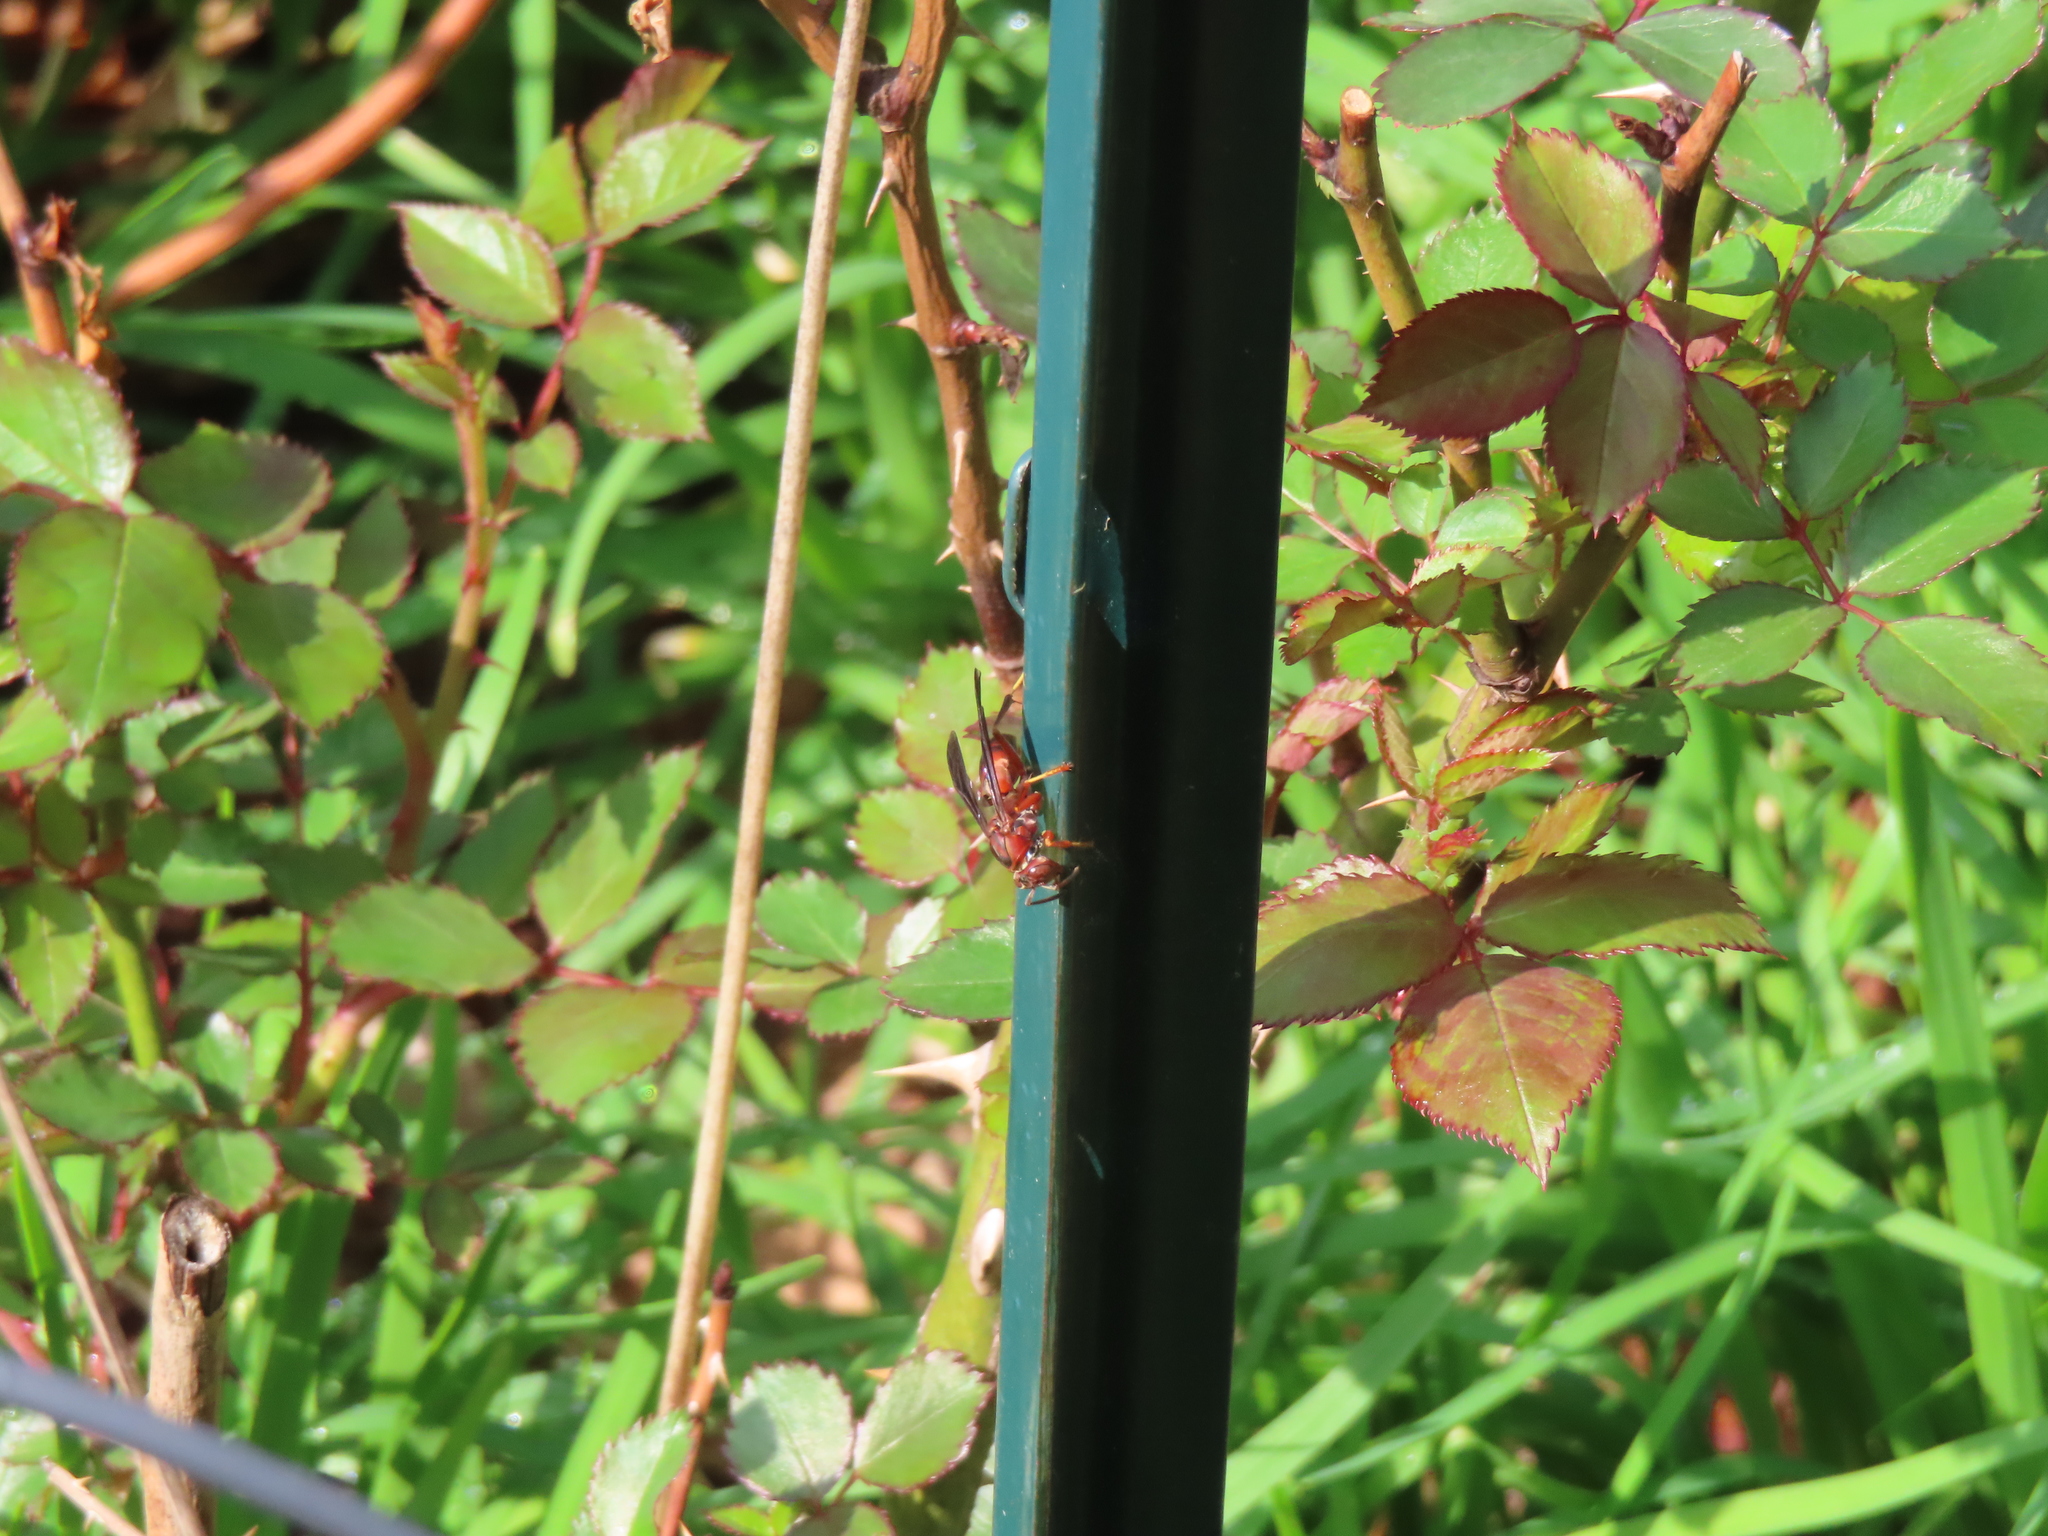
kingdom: Animalia
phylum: Arthropoda
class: Insecta
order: Hymenoptera
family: Vespidae
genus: Fuscopolistes
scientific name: Fuscopolistes
